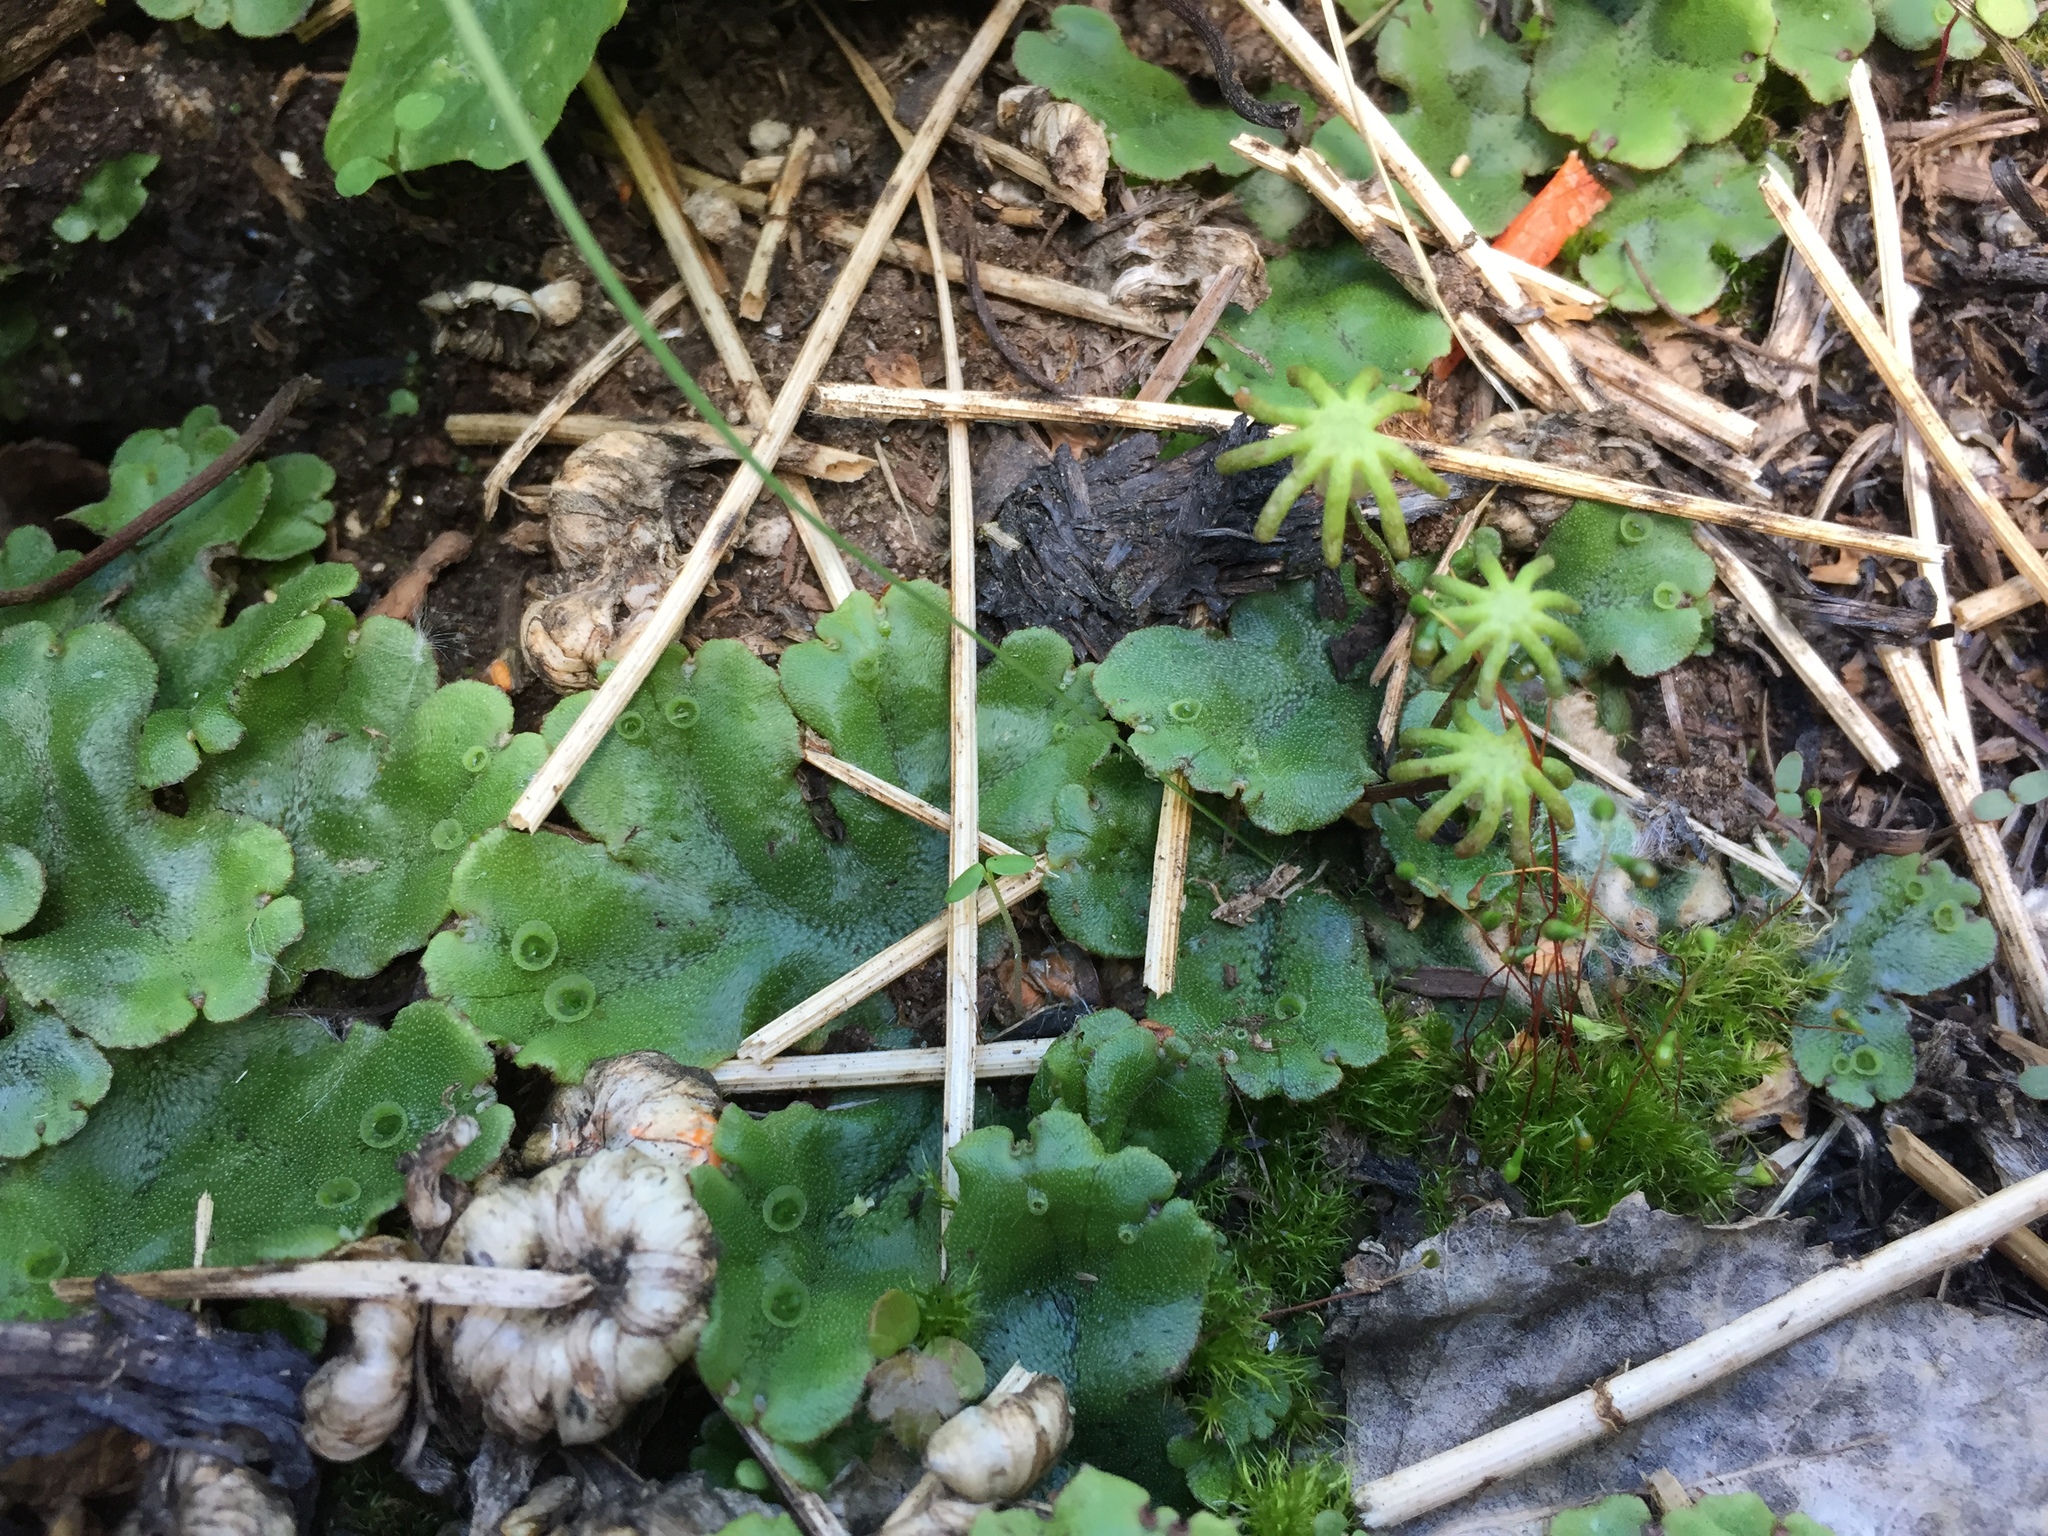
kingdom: Plantae
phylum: Marchantiophyta
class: Marchantiopsida
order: Marchantiales
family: Marchantiaceae
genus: Marchantia
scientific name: Marchantia polymorpha
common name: Common liverwort
